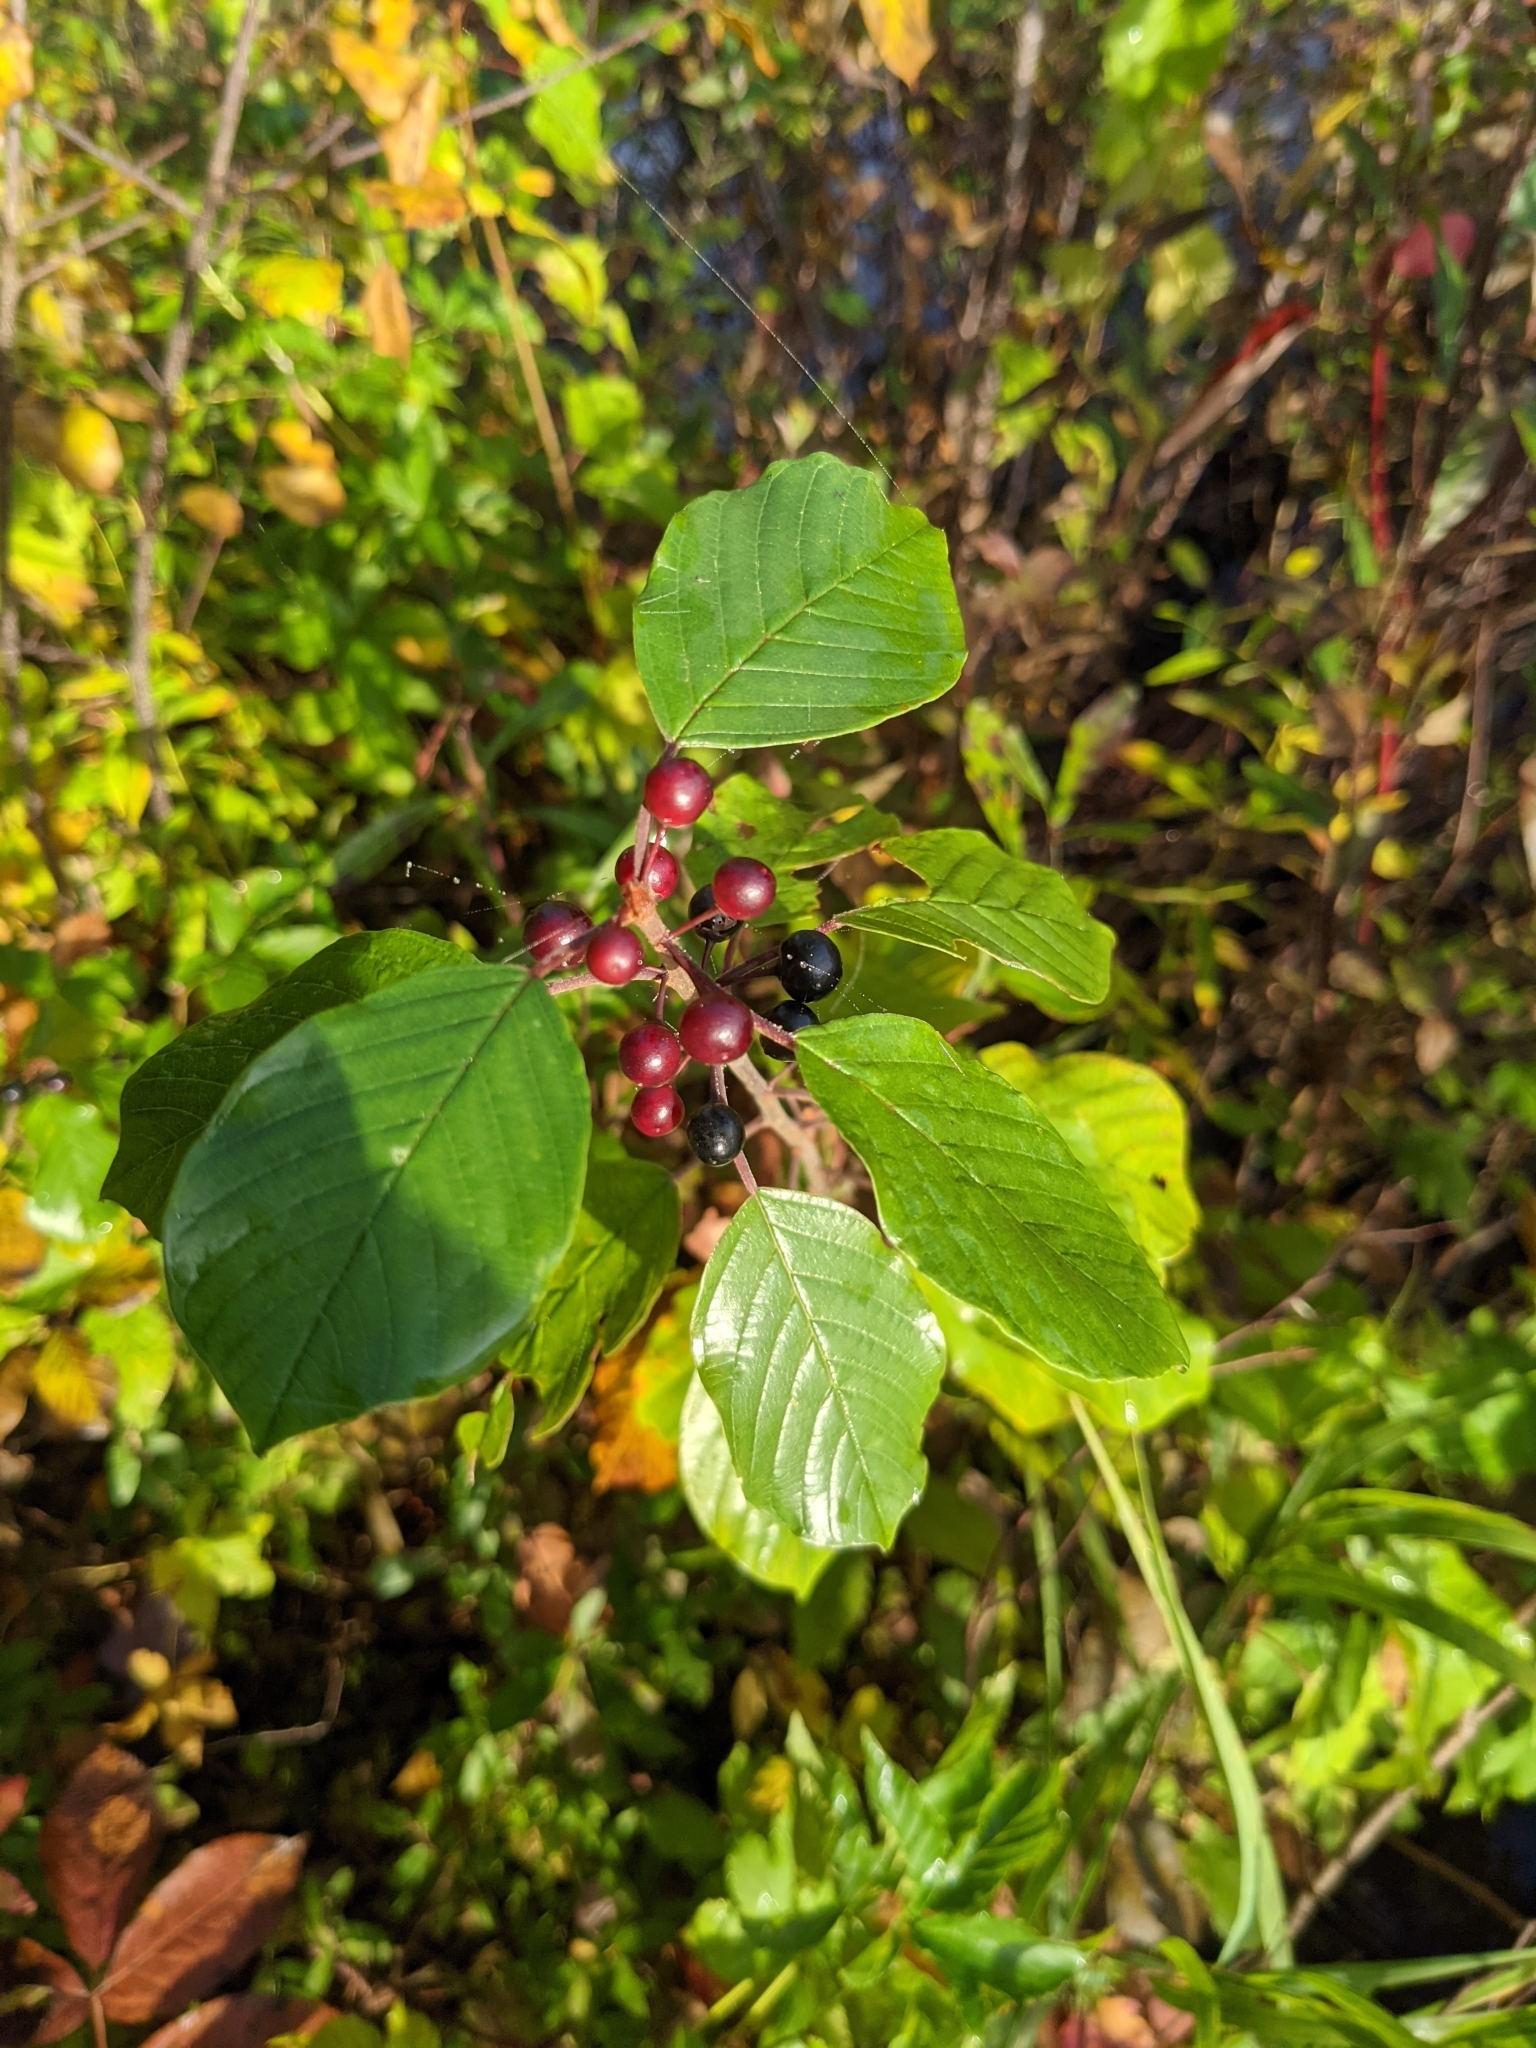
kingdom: Plantae
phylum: Tracheophyta
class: Magnoliopsida
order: Rosales
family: Rhamnaceae
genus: Frangula
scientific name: Frangula alnus
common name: Alder buckthorn
